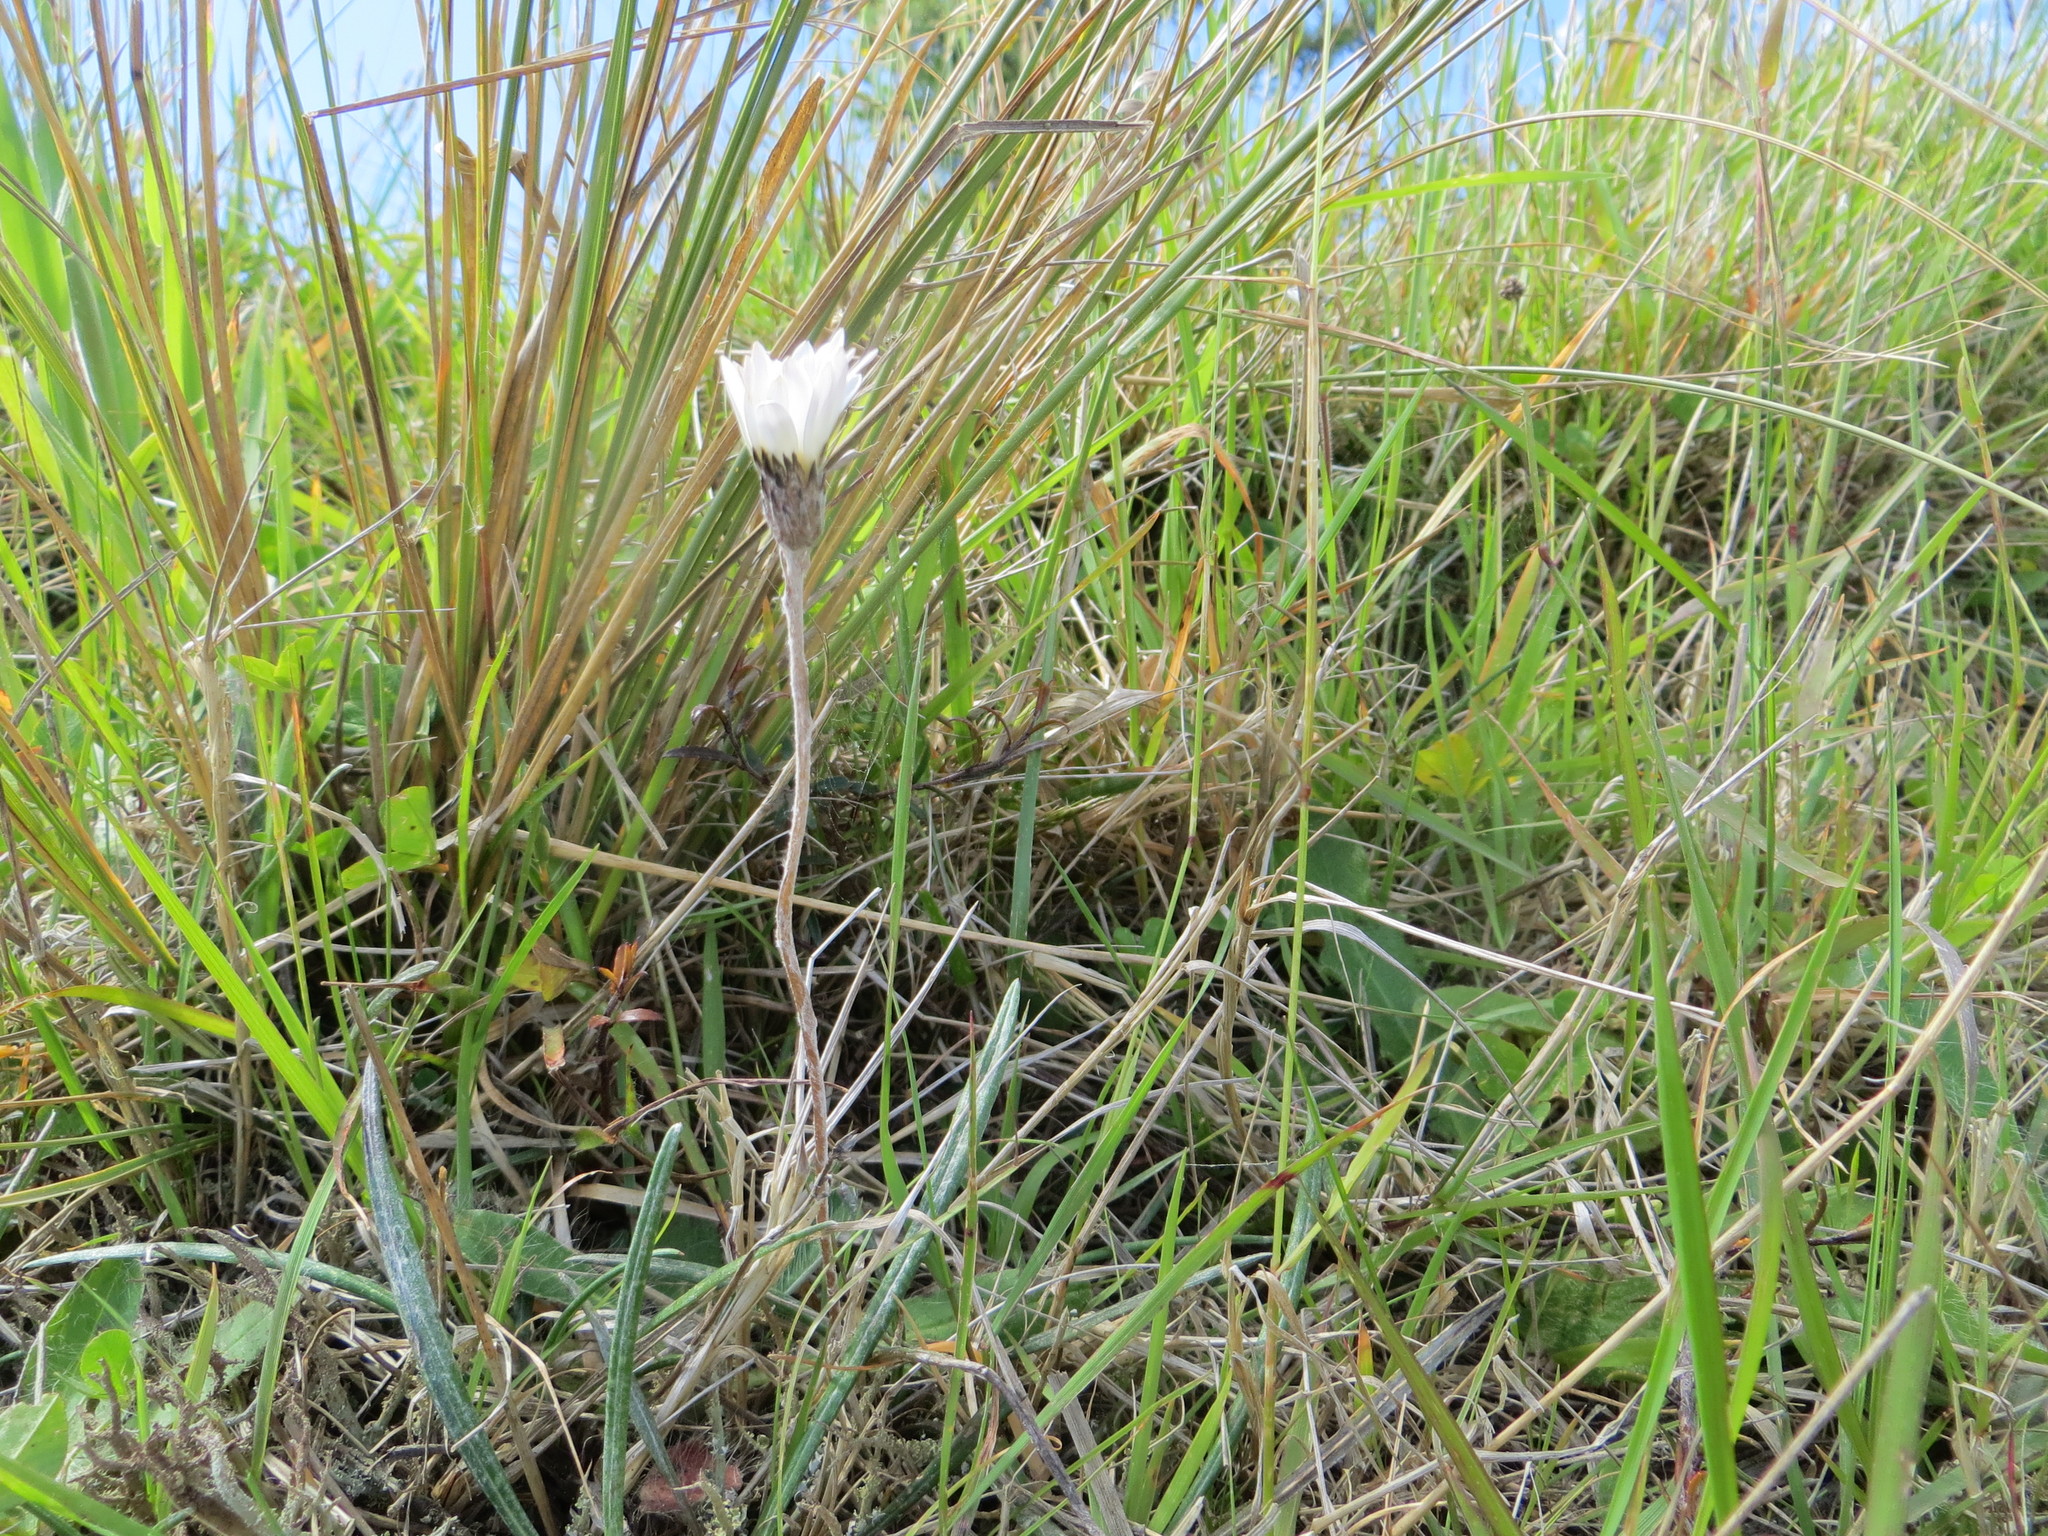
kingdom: Plantae
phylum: Tracheophyta
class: Magnoliopsida
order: Asterales
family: Asteraceae
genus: Celmisia
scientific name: Celmisia gracilenta
